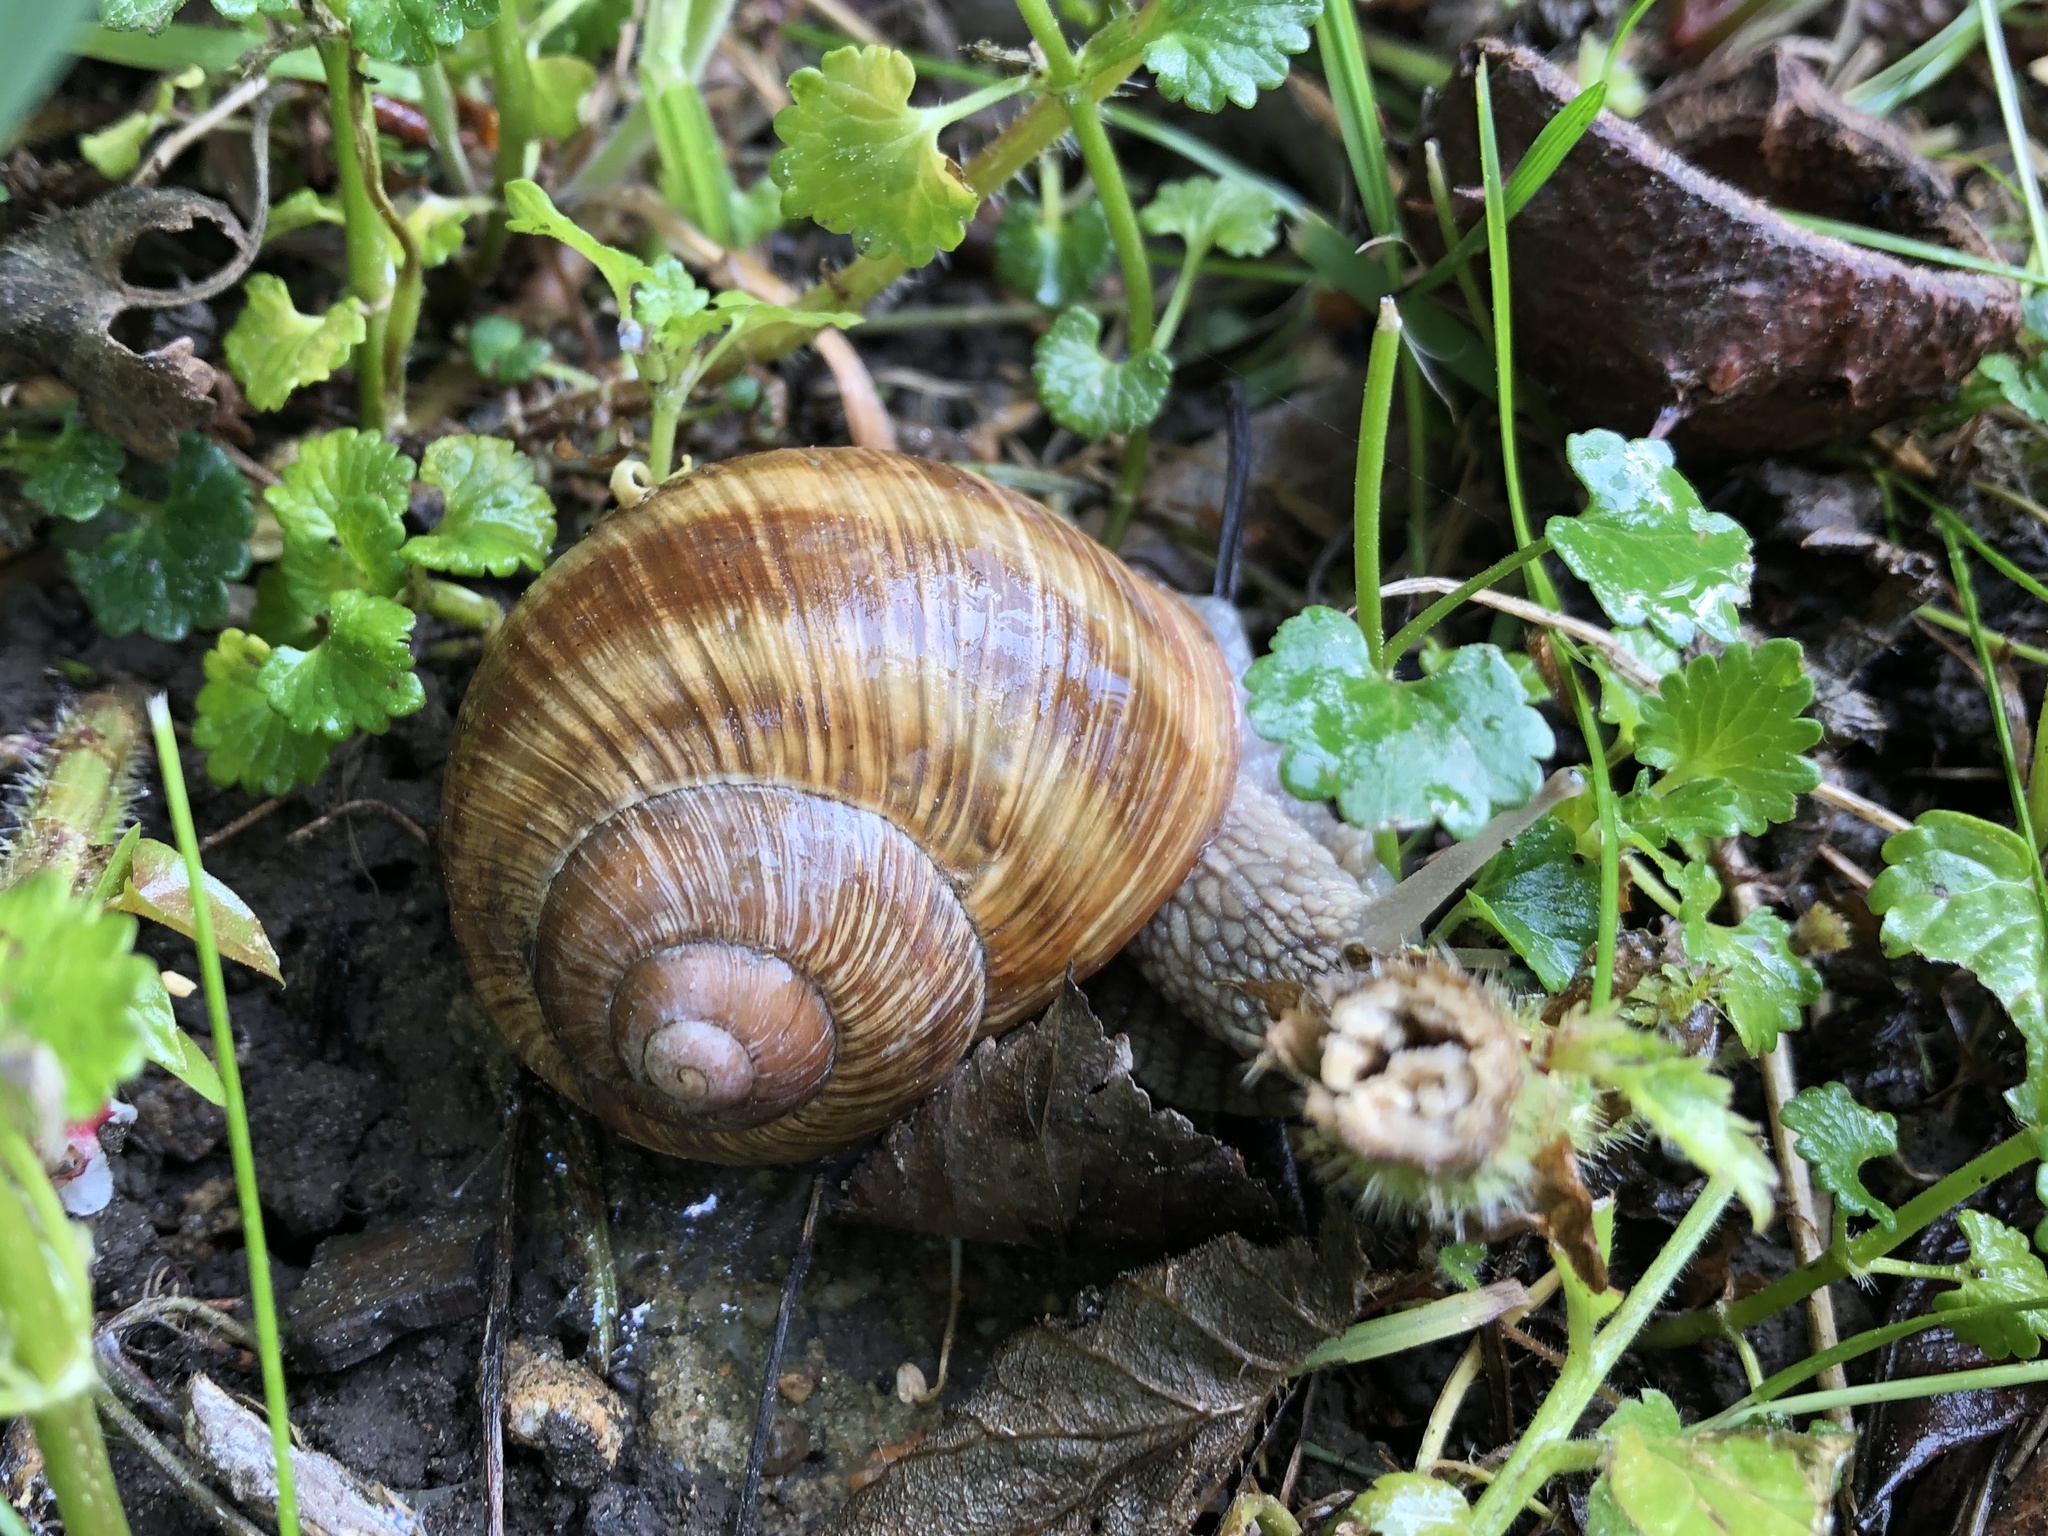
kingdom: Animalia
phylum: Mollusca
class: Gastropoda
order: Stylommatophora
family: Helicidae
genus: Helix
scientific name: Helix pomatia
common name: Roman snail
